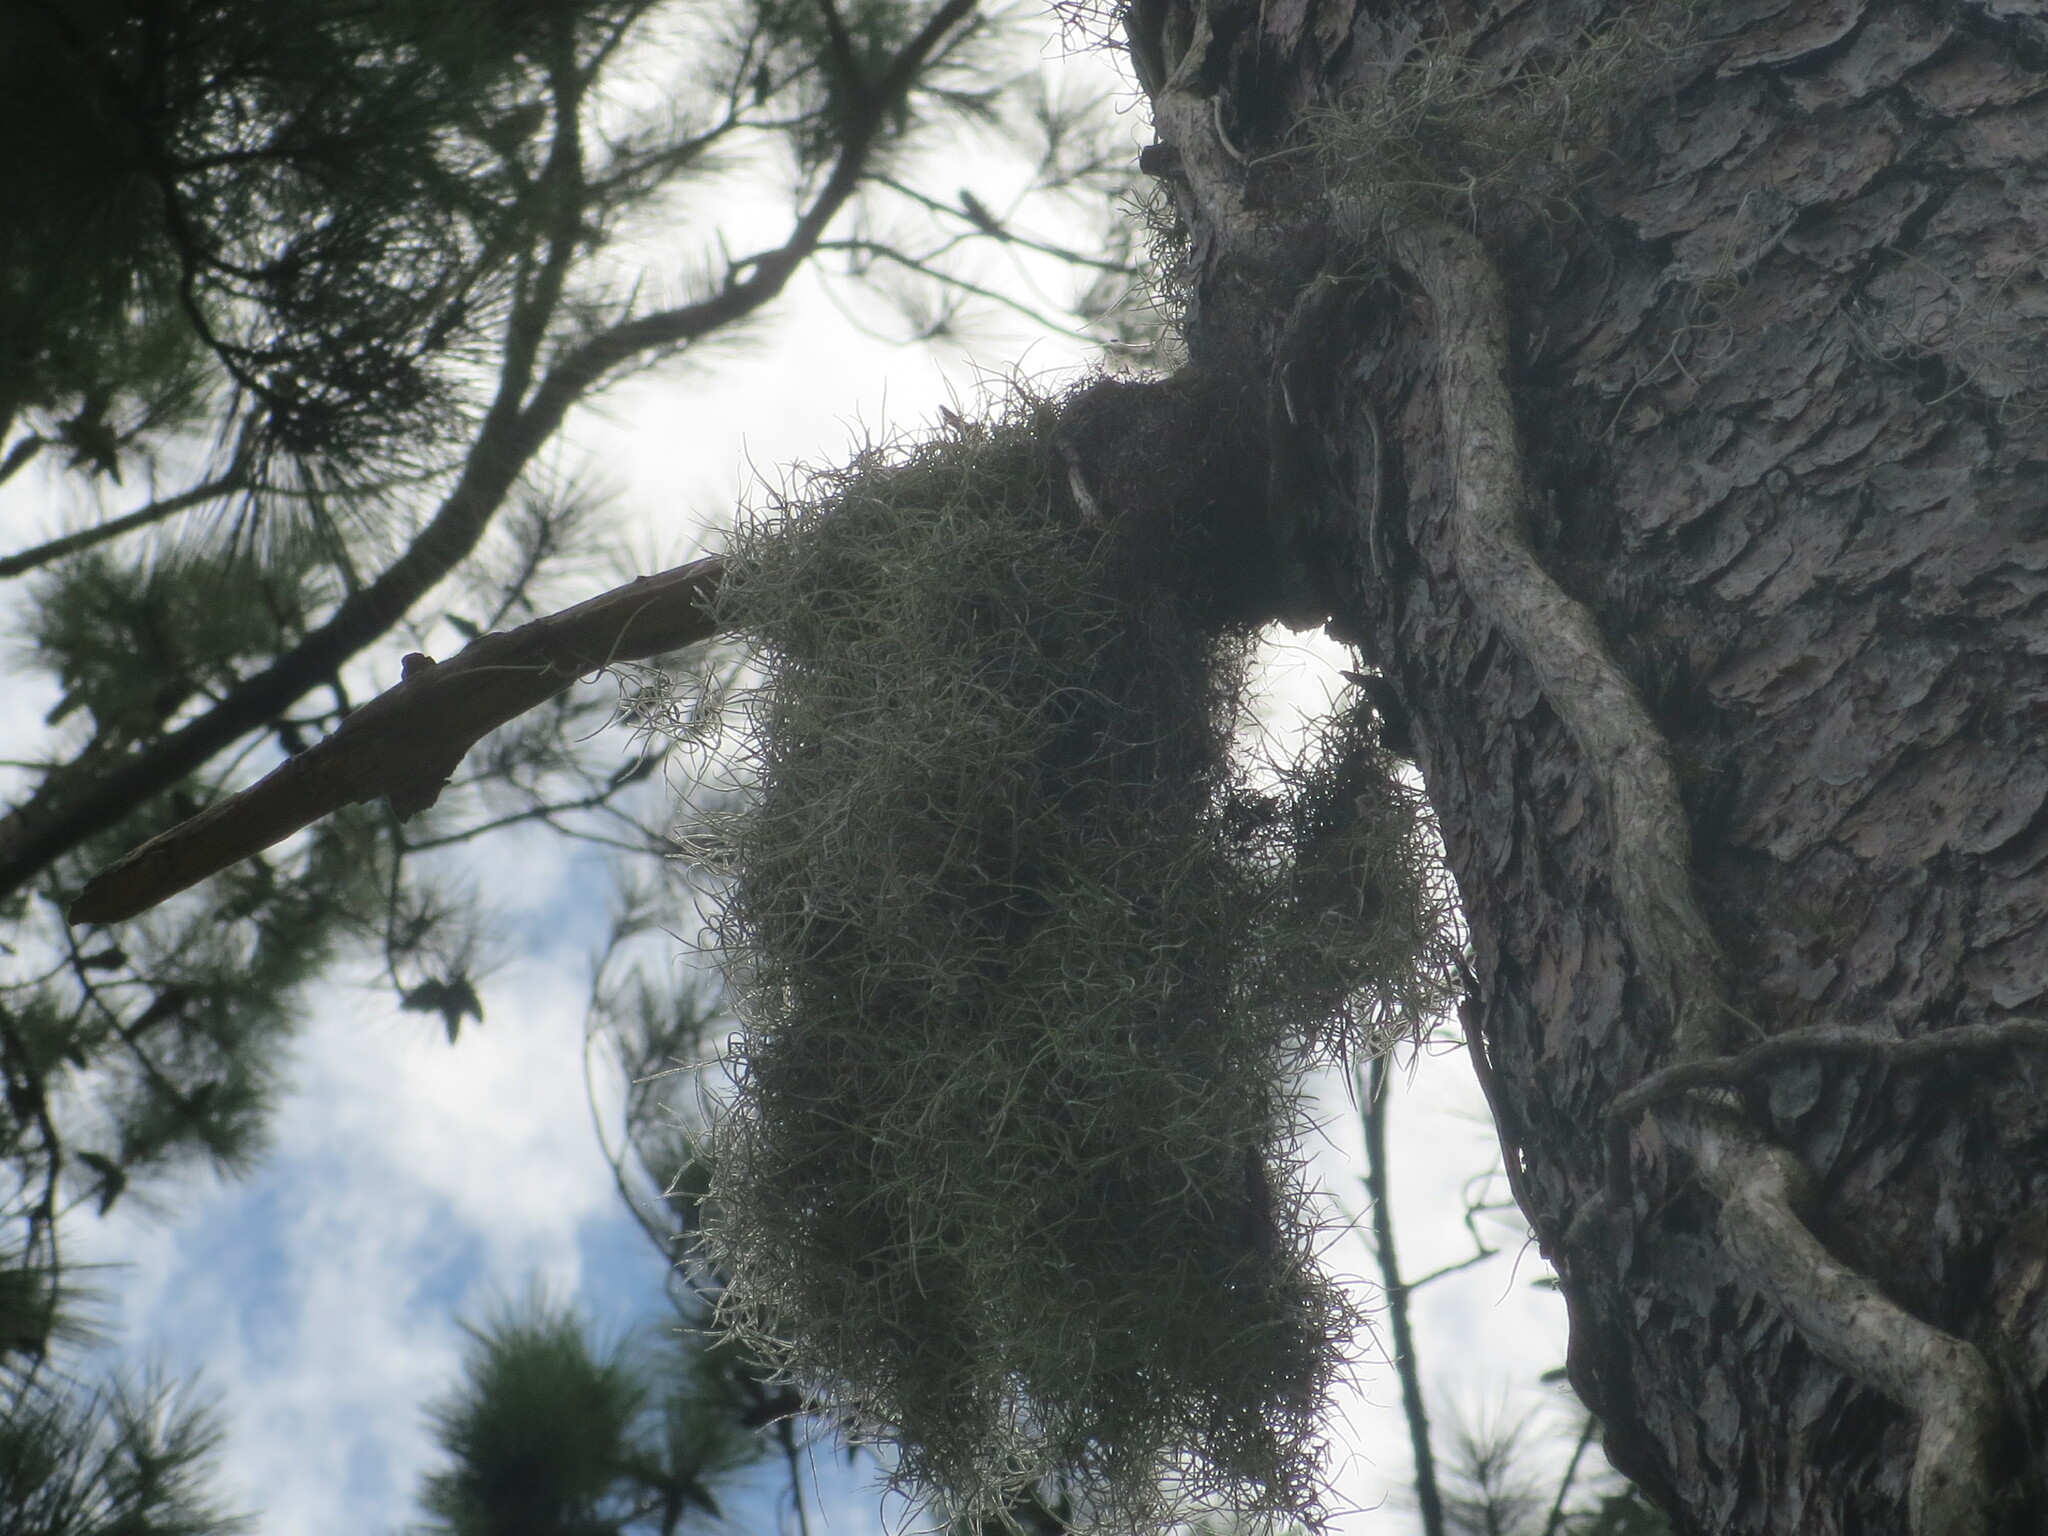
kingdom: Plantae
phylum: Tracheophyta
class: Liliopsida
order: Poales
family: Bromeliaceae
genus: Tillandsia
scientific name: Tillandsia usneoides
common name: Spanish moss
